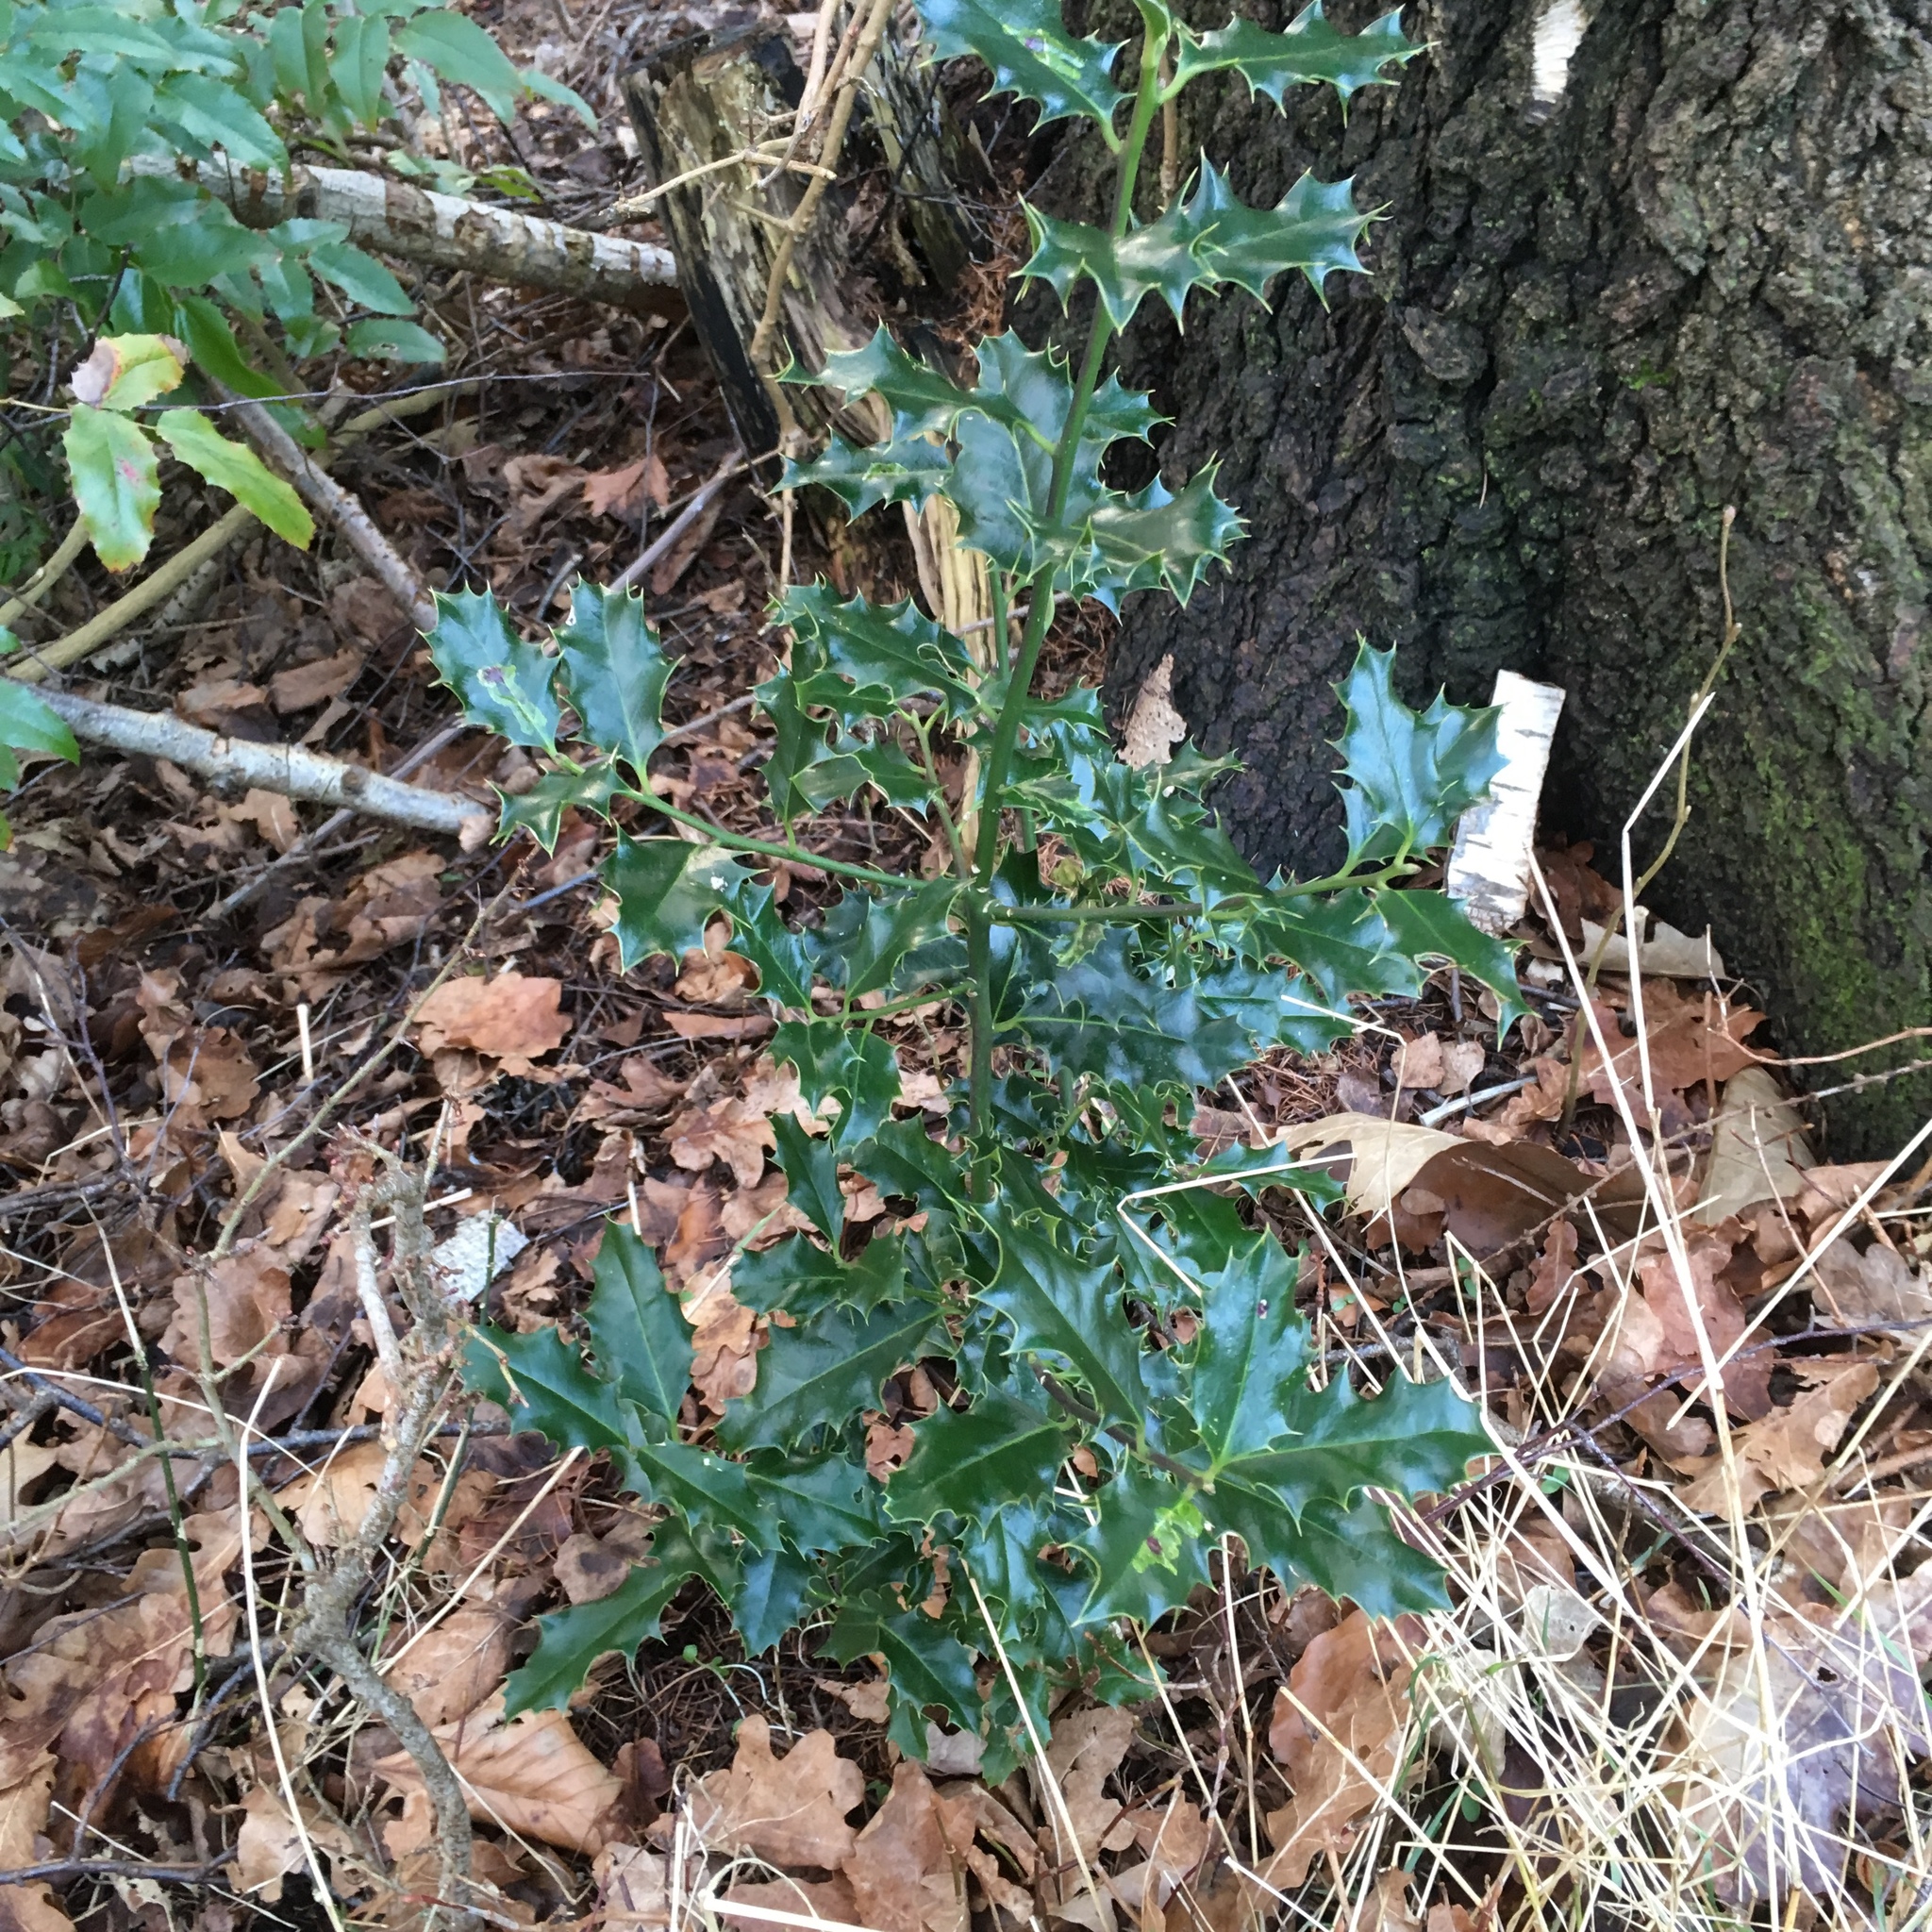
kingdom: Plantae
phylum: Tracheophyta
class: Magnoliopsida
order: Aquifoliales
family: Aquifoliaceae
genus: Ilex
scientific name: Ilex aquifolium
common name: English holly
